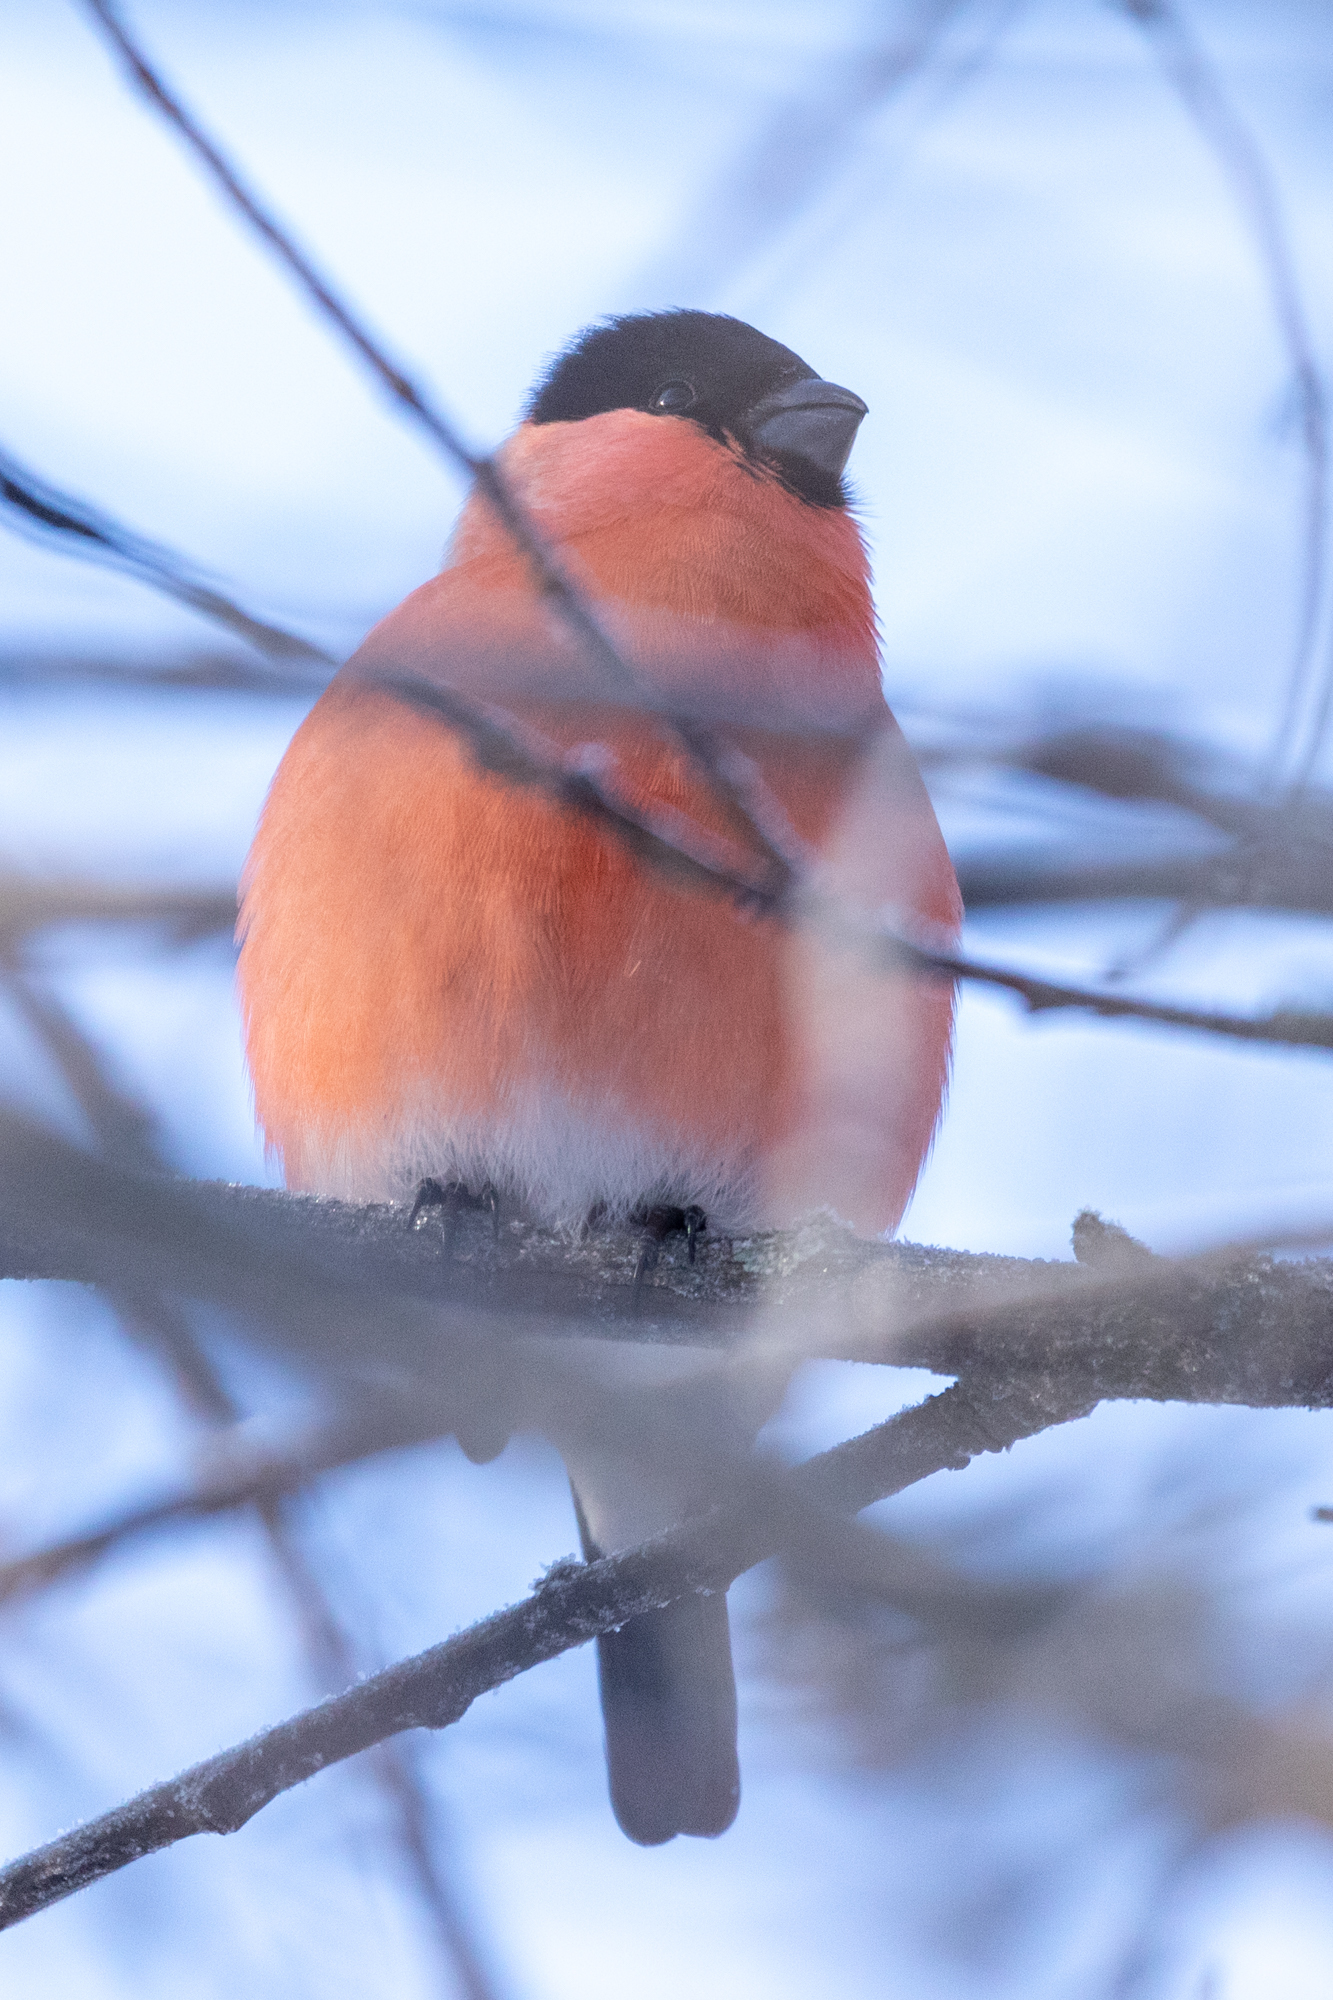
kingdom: Animalia
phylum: Chordata
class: Aves
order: Passeriformes
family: Fringillidae
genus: Pyrrhula
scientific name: Pyrrhula pyrrhula
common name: Eurasian bullfinch
